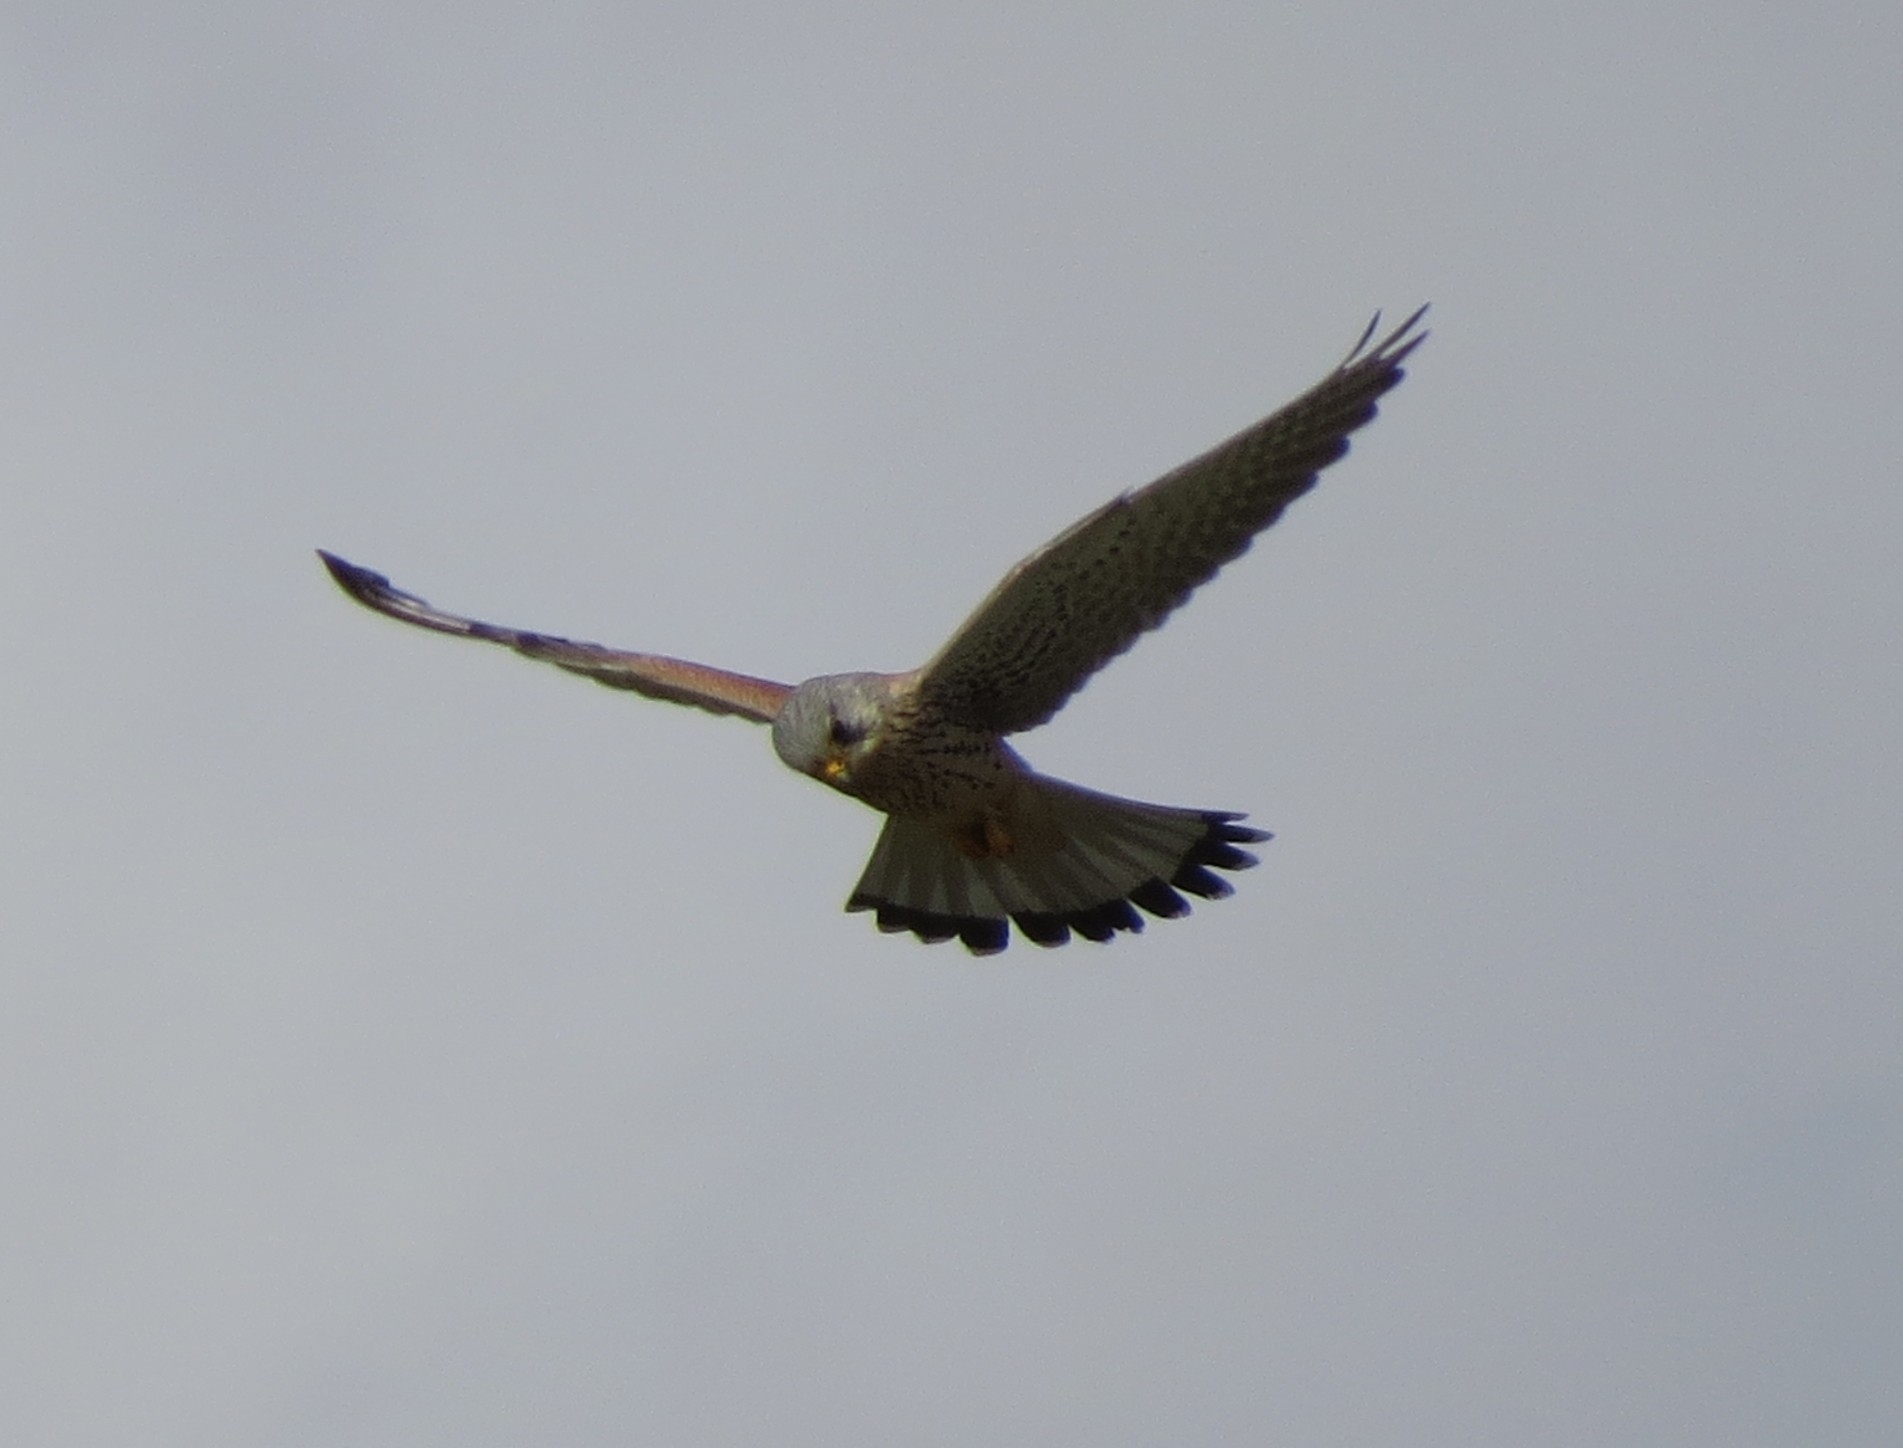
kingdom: Animalia
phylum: Chordata
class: Aves
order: Falconiformes
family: Falconidae
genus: Falco
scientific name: Falco tinnunculus
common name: Common kestrel
